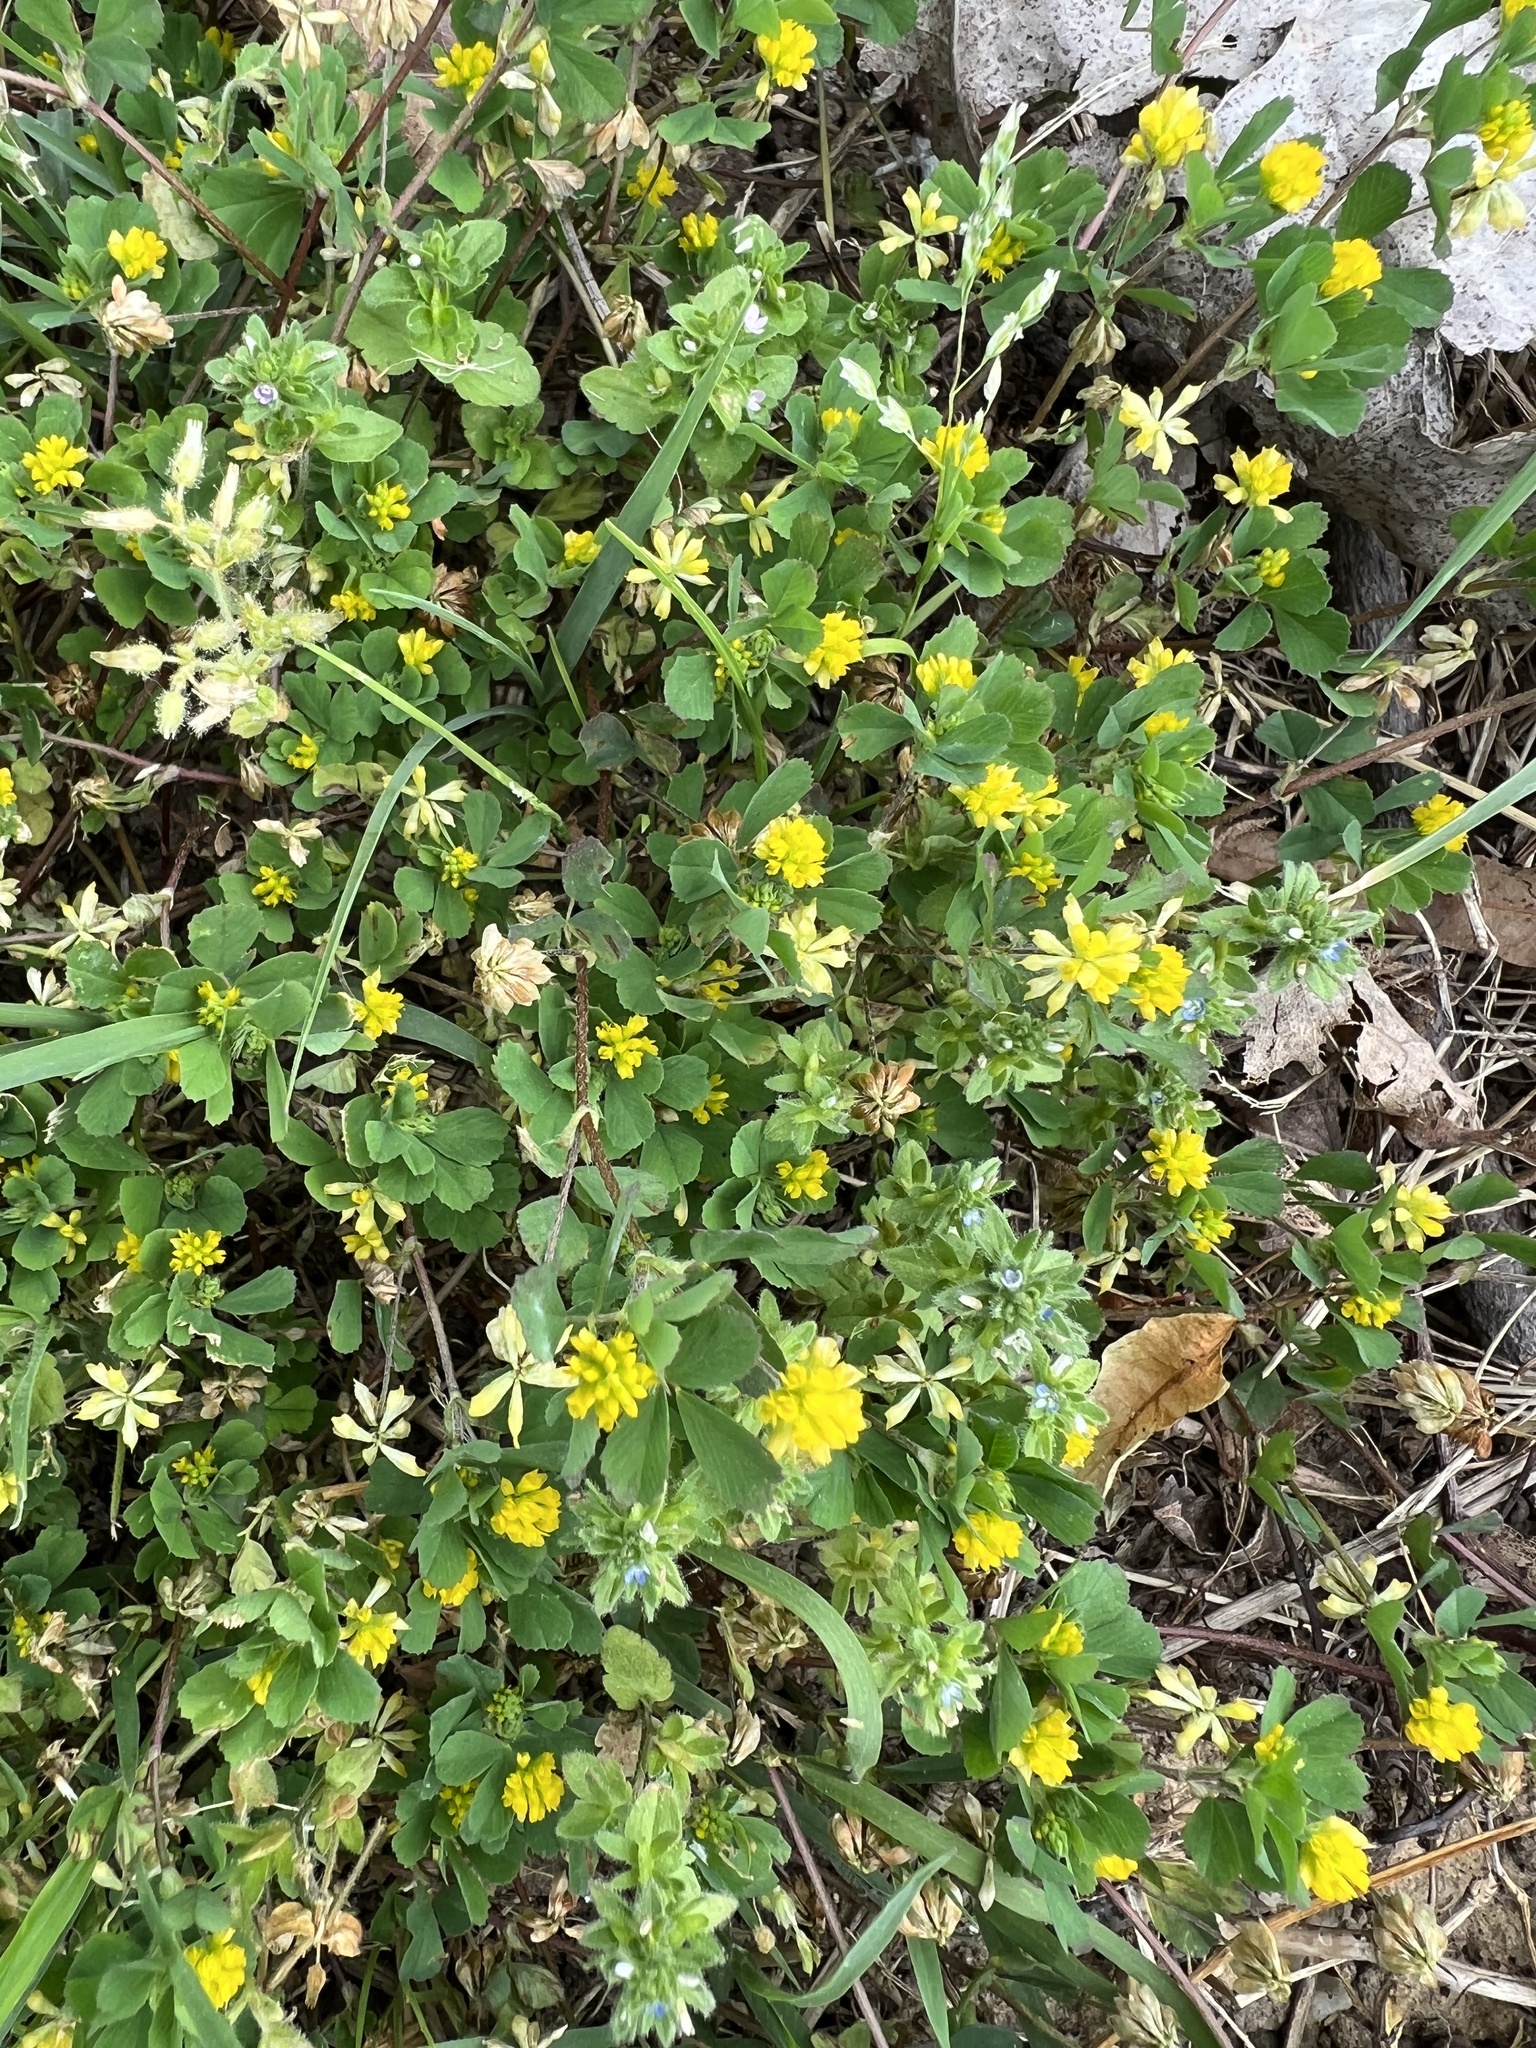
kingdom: Plantae
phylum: Tracheophyta
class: Magnoliopsida
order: Fabales
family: Fabaceae
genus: Trifolium
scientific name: Trifolium dubium
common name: Suckling clover
